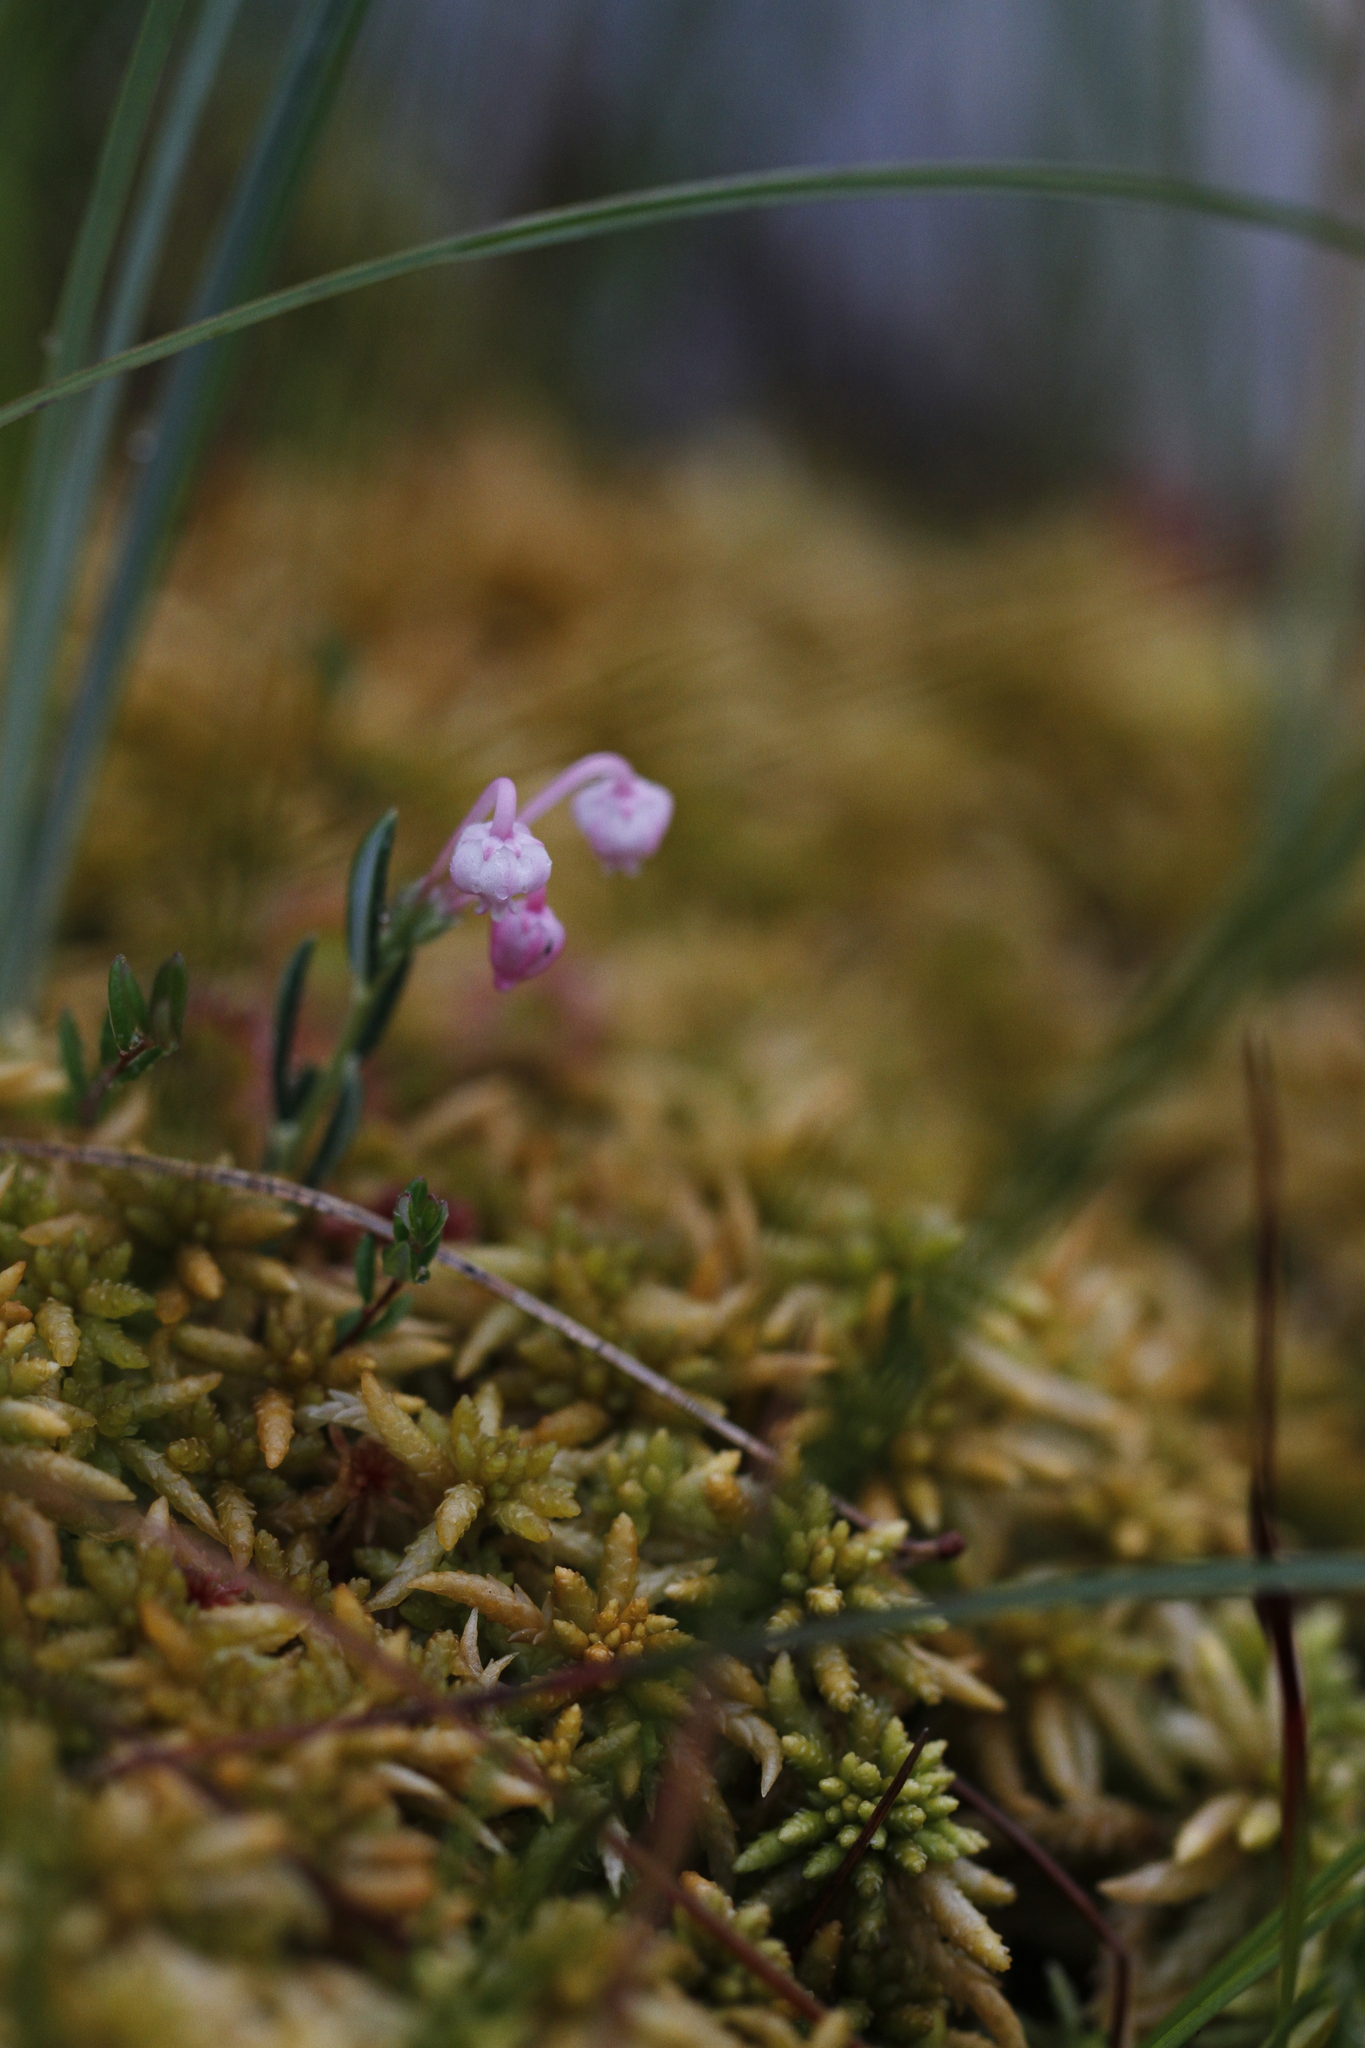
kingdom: Plantae
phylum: Tracheophyta
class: Magnoliopsida
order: Ericales
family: Ericaceae
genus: Andromeda
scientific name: Andromeda polifolia
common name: Bog-rosemary
